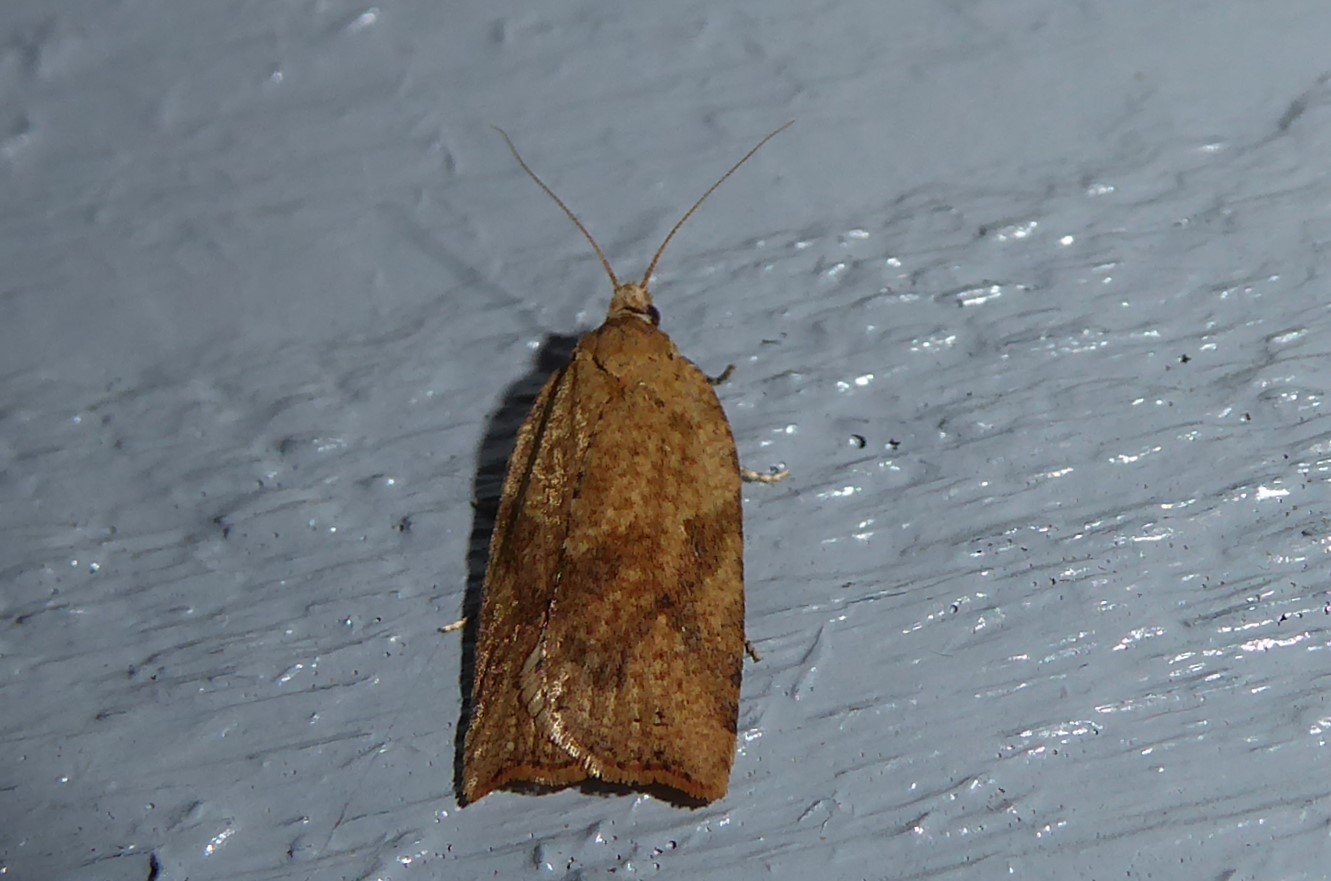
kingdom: Animalia
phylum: Arthropoda
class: Insecta
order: Lepidoptera
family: Tortricidae
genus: Epiphyas
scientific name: Epiphyas postvittana
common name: Light brown apple moth
